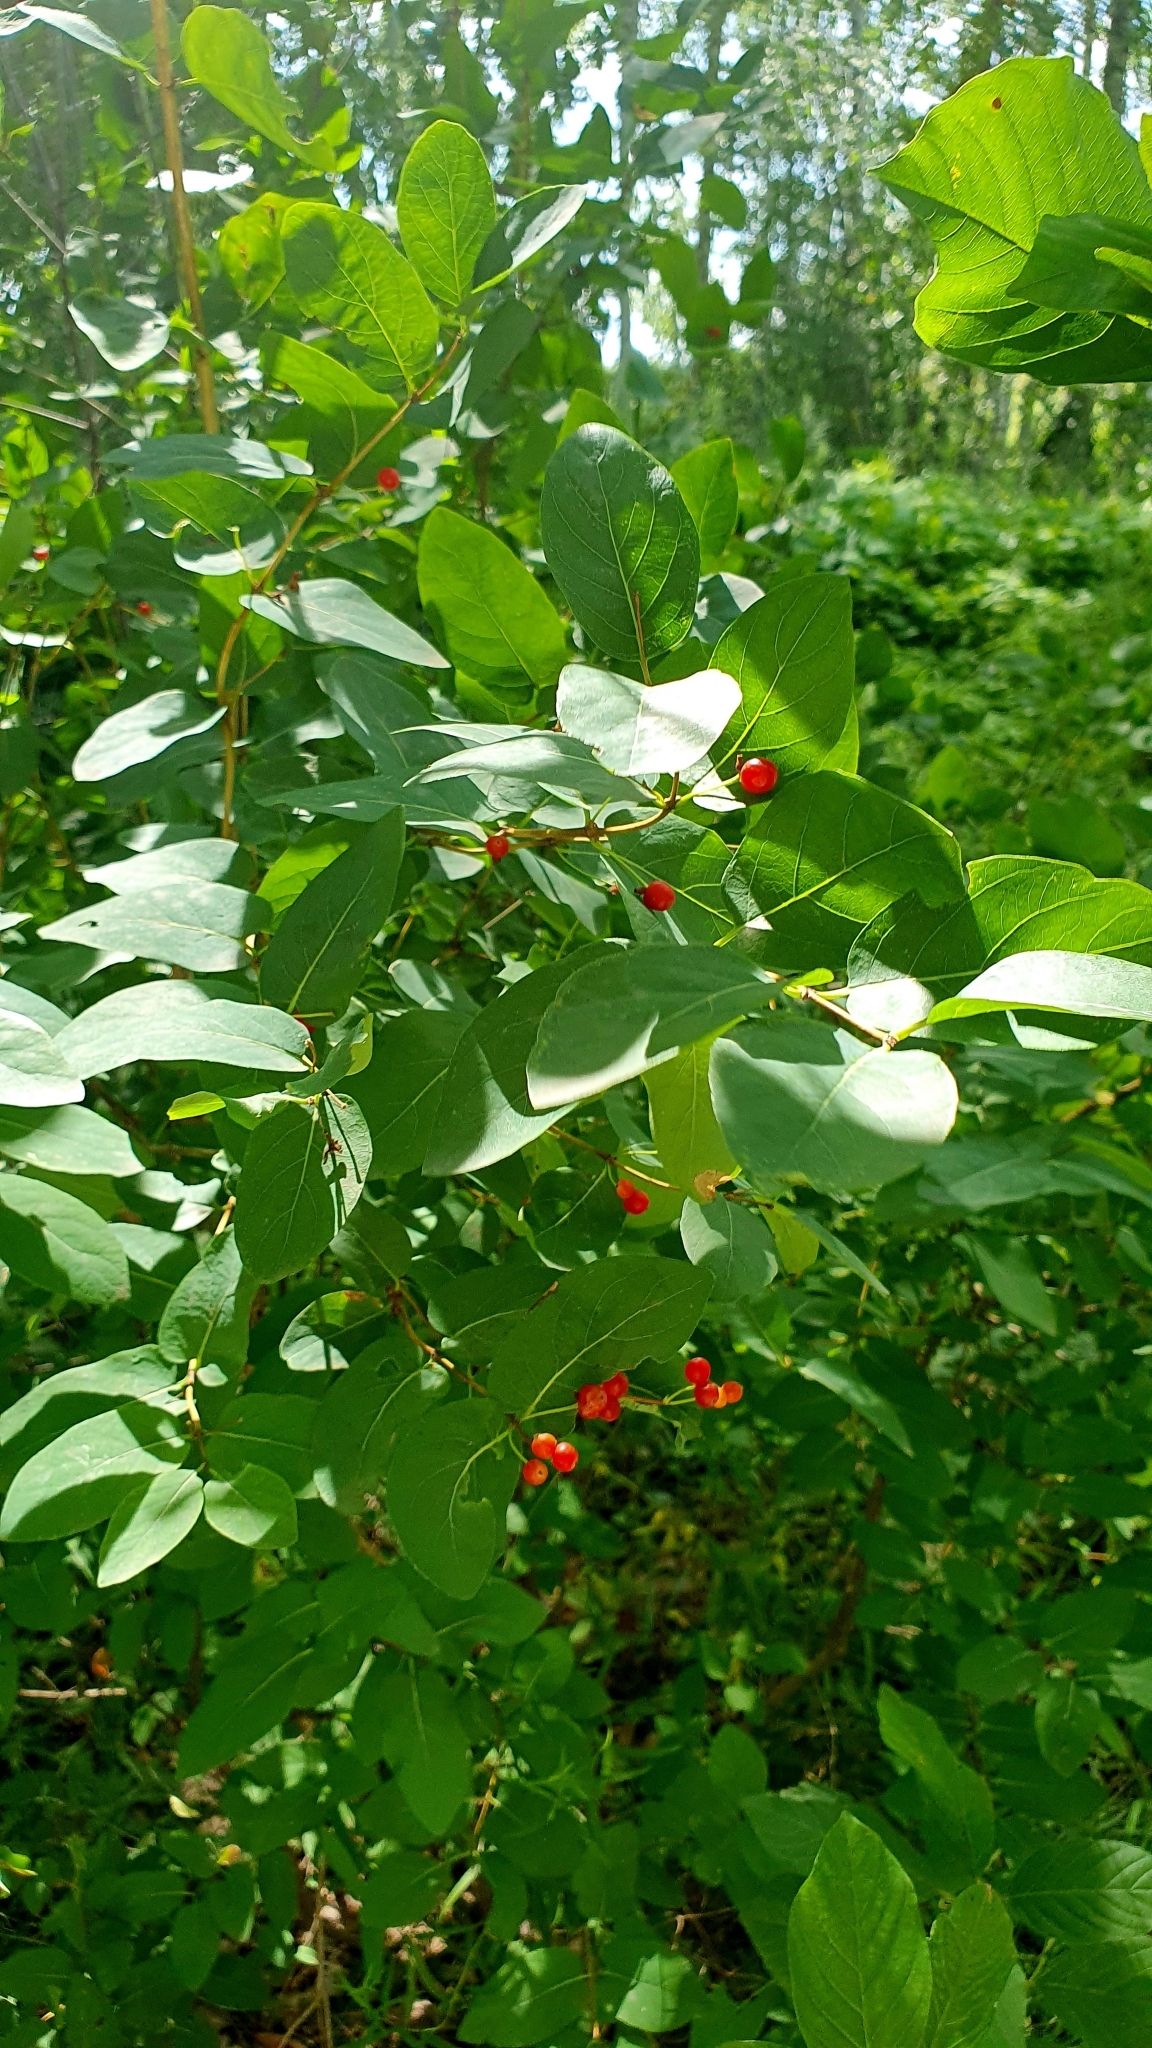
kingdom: Plantae
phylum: Tracheophyta
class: Magnoliopsida
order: Dipsacales
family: Caprifoliaceae
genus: Lonicera
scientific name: Lonicera tatarica
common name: Tatarian honeysuckle
